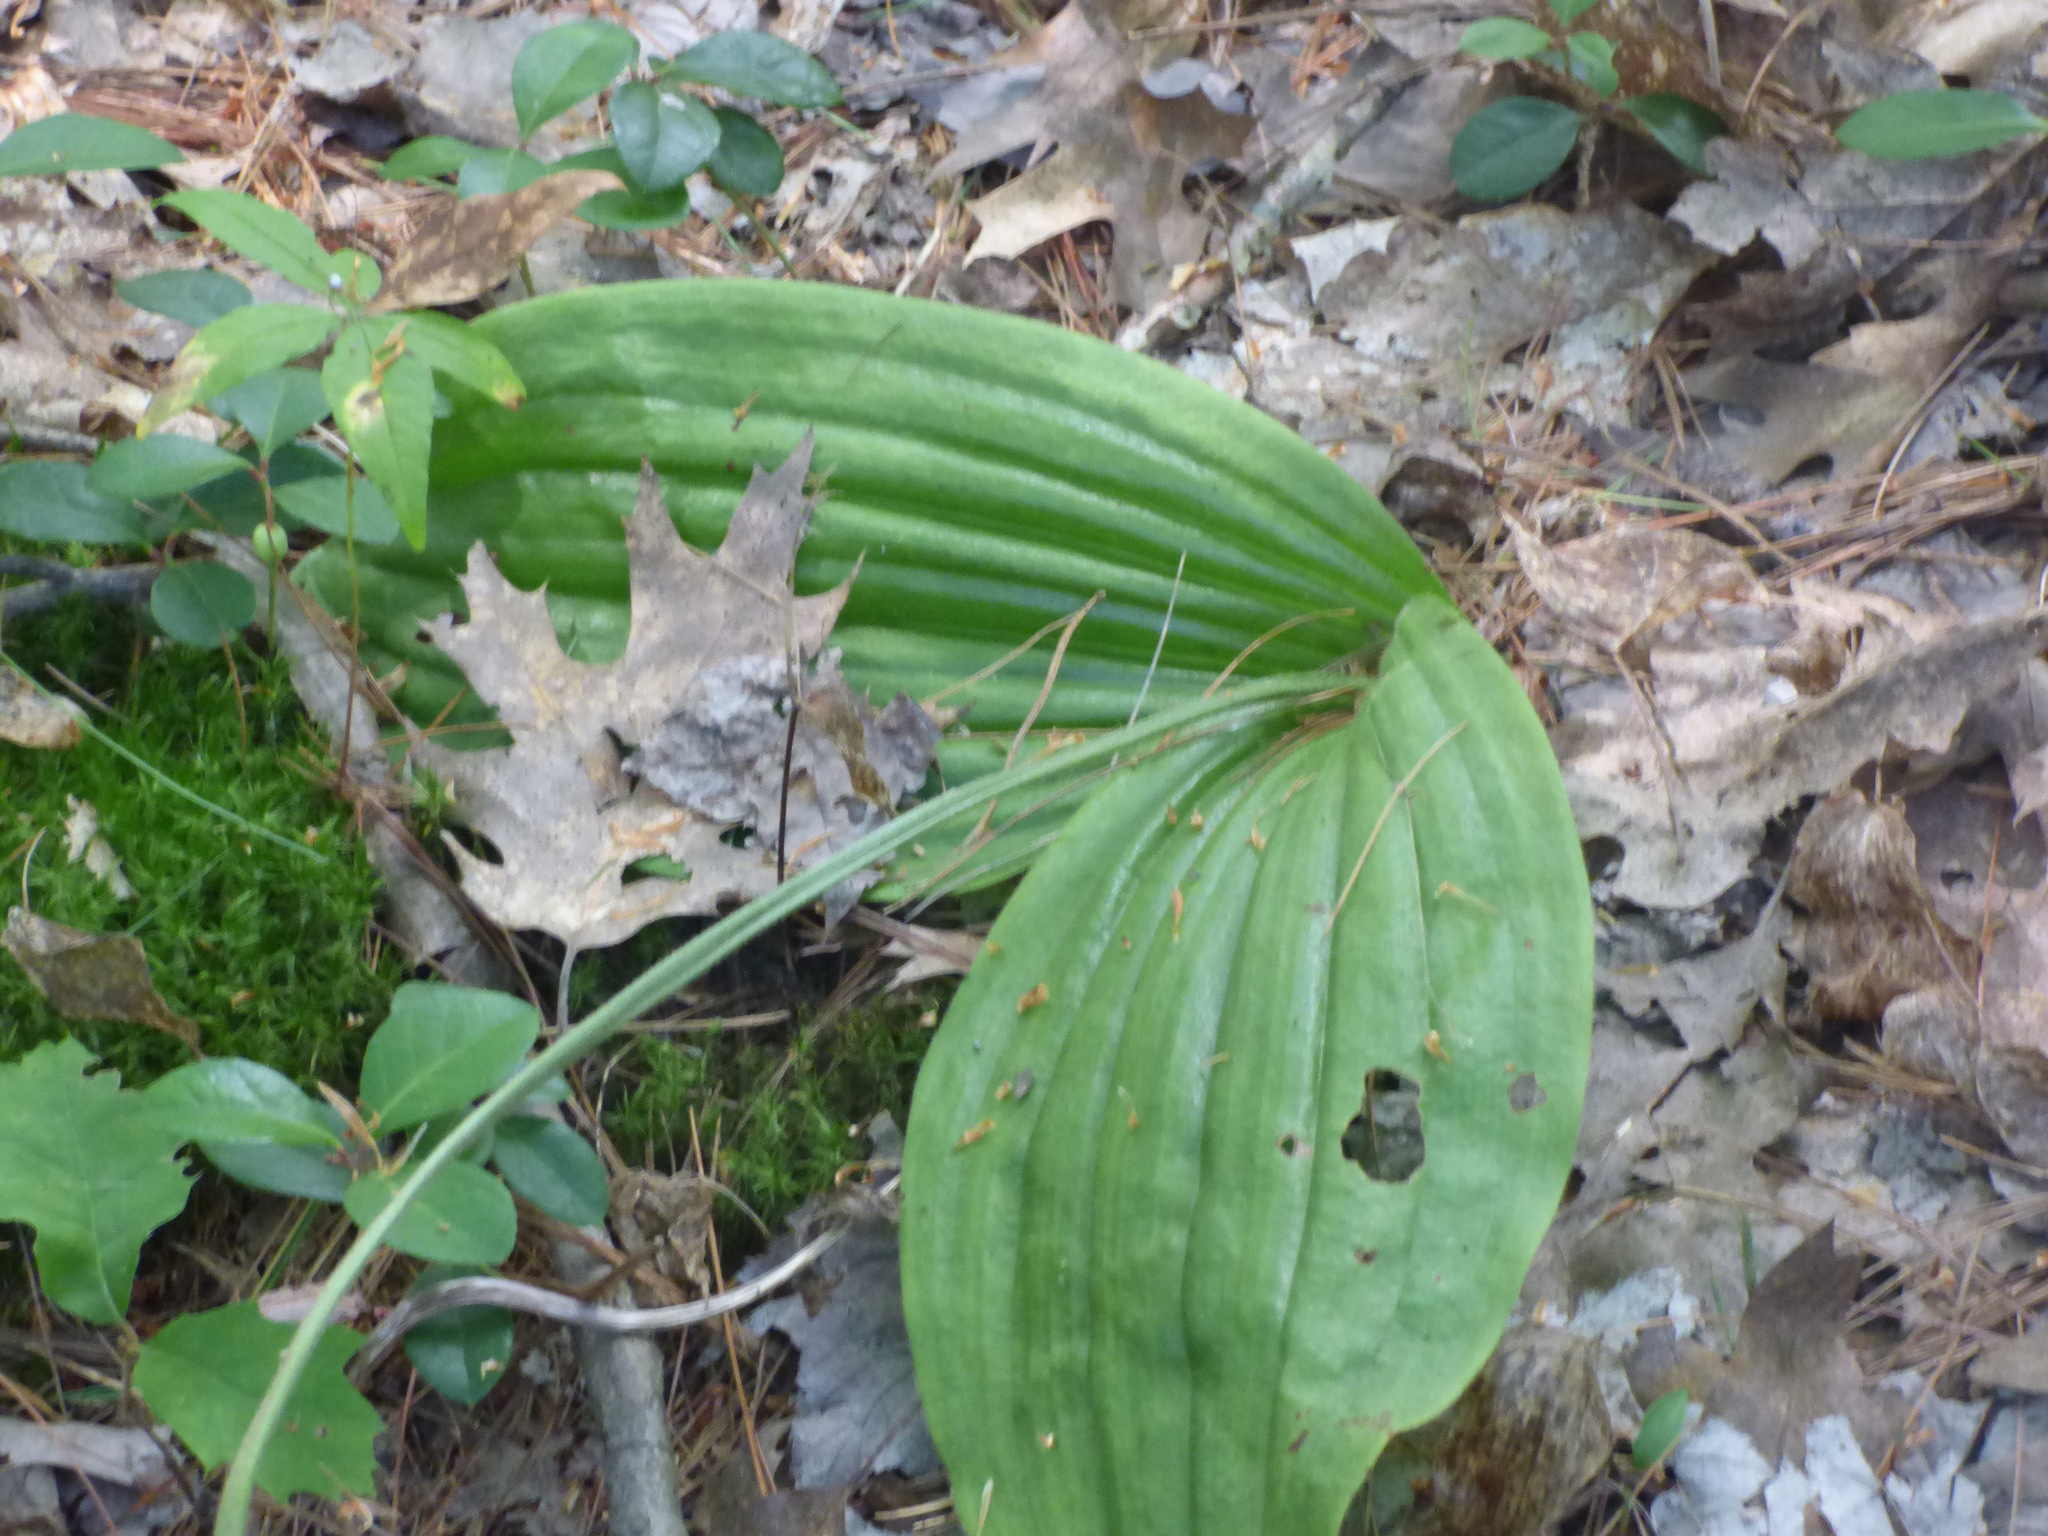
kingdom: Plantae
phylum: Tracheophyta
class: Liliopsida
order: Asparagales
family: Orchidaceae
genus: Cypripedium
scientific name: Cypripedium acaule
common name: Pink lady's-slipper
